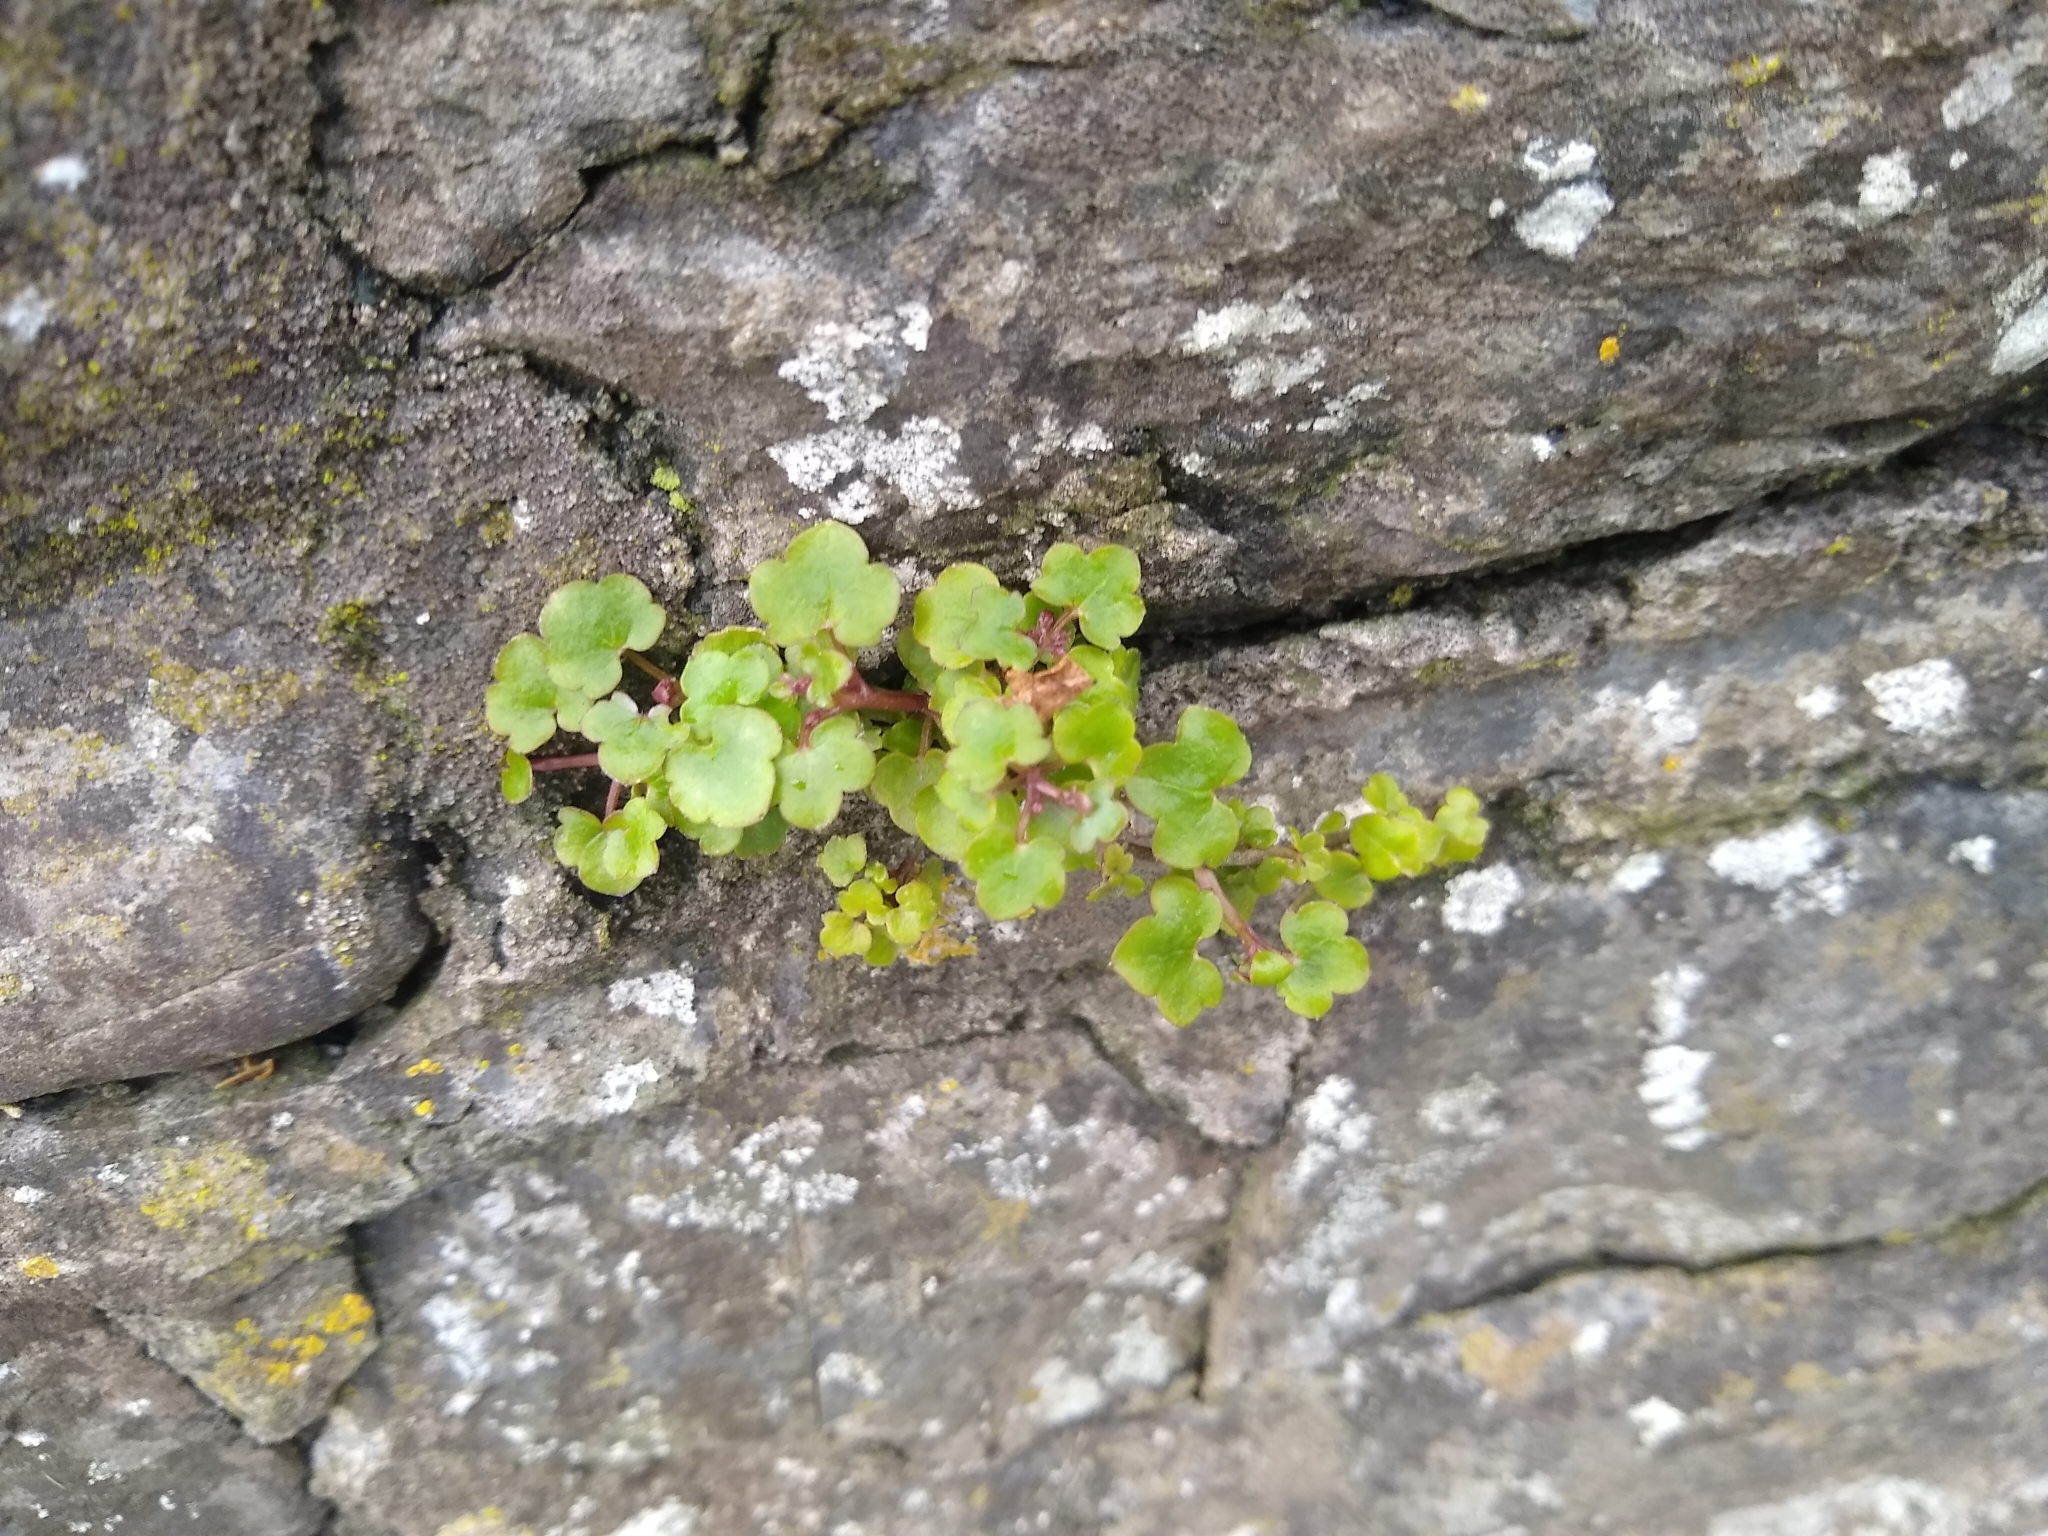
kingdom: Plantae
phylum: Tracheophyta
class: Magnoliopsida
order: Lamiales
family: Plantaginaceae
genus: Cymbalaria
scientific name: Cymbalaria muralis
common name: Ivy-leaved toadflax
